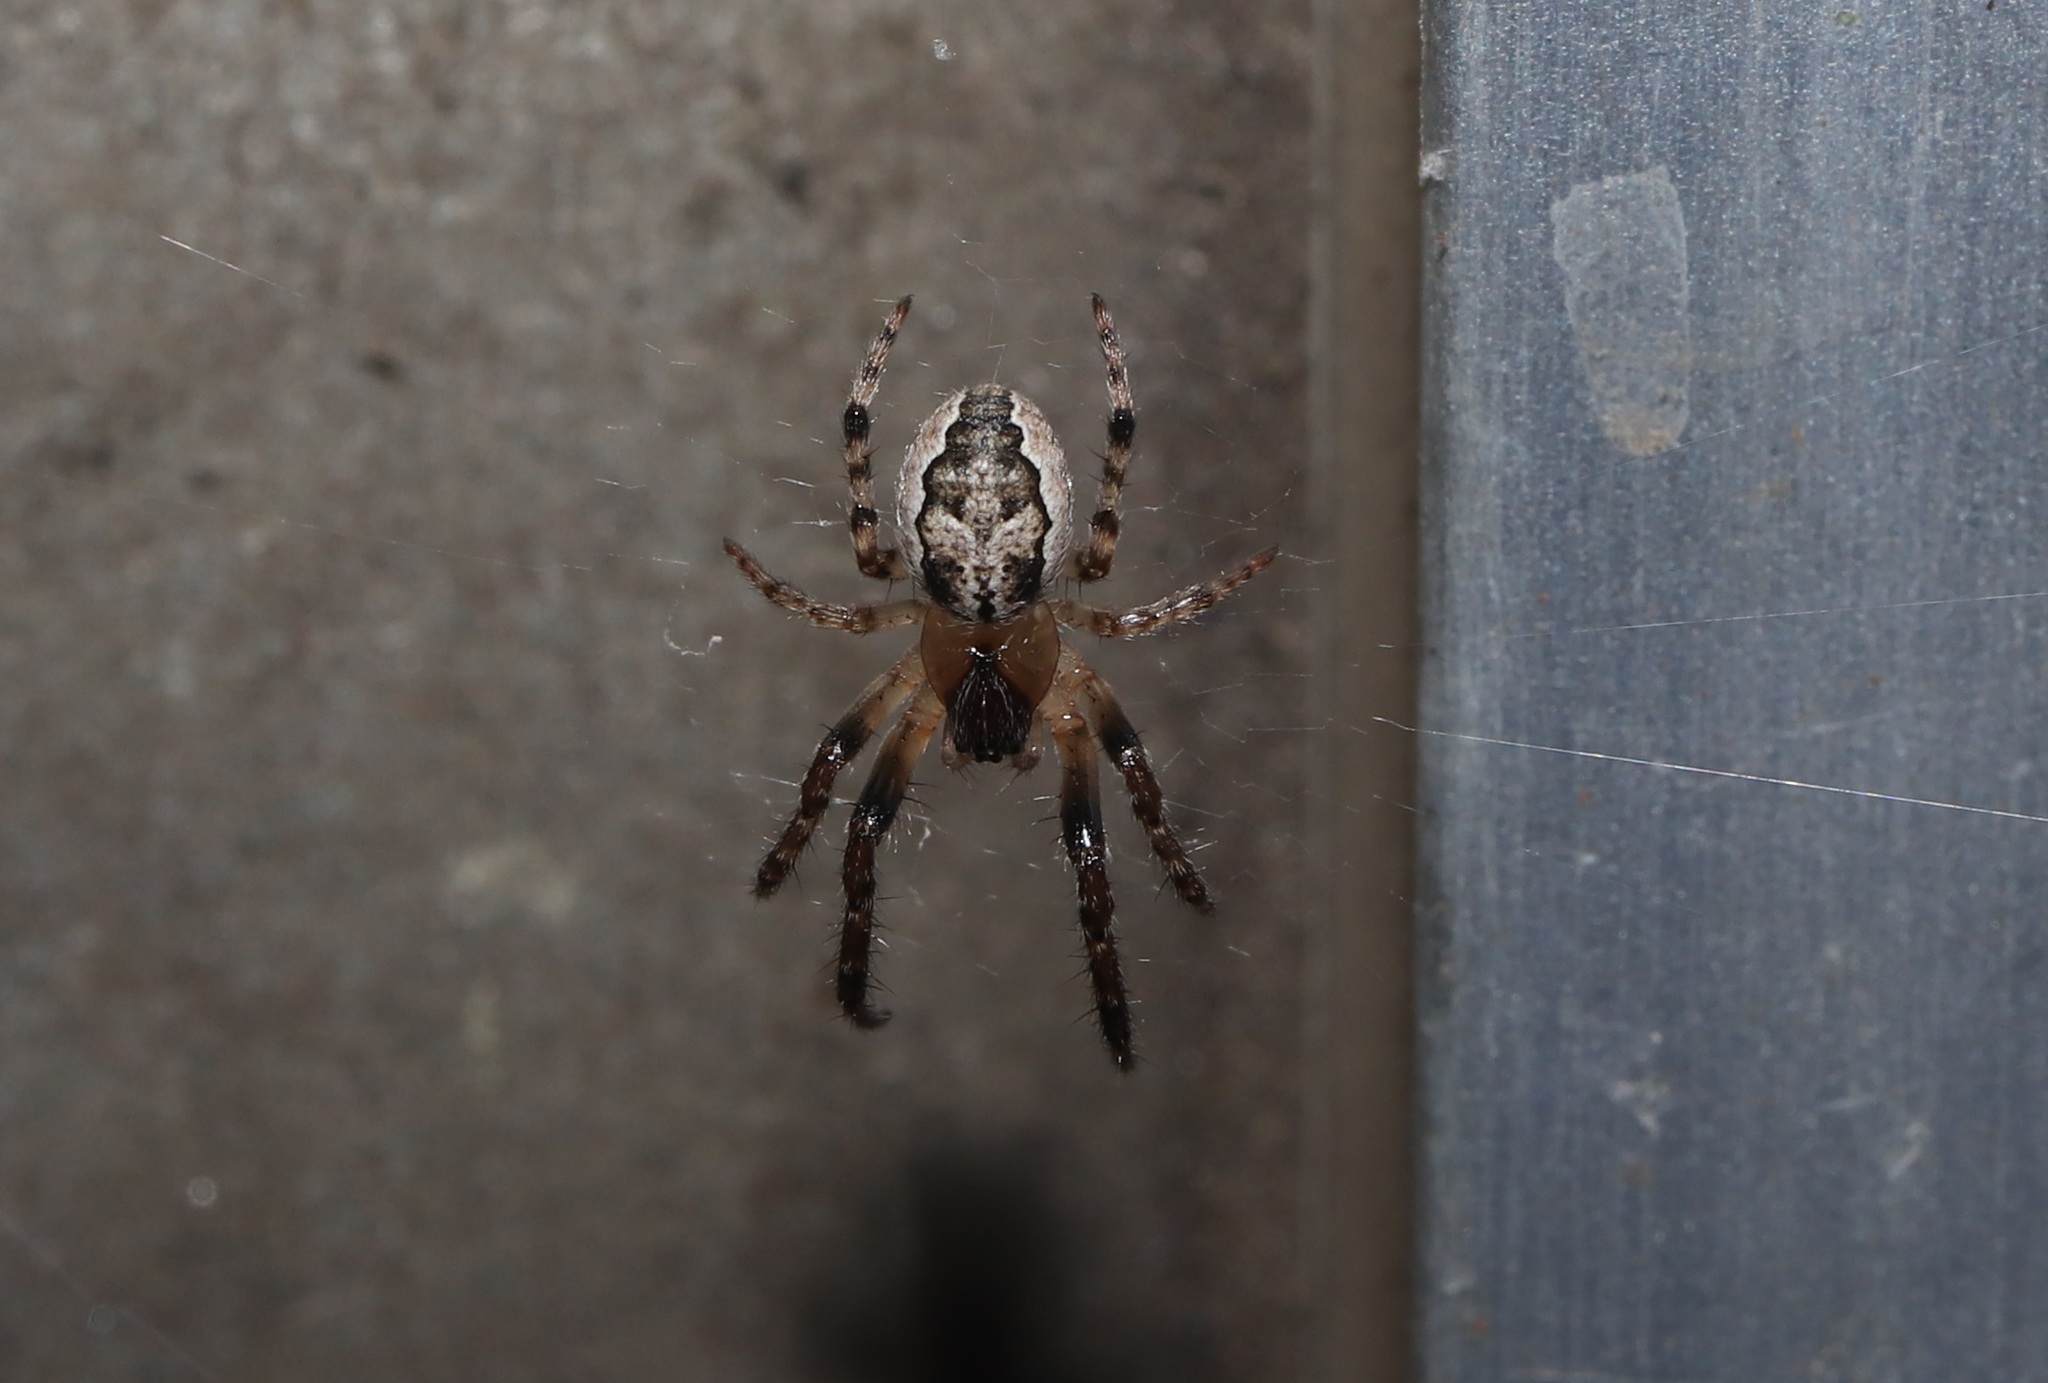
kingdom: Animalia
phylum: Arthropoda
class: Arachnida
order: Araneae
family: Araneidae
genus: Yaginumia
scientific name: Yaginumia sia
